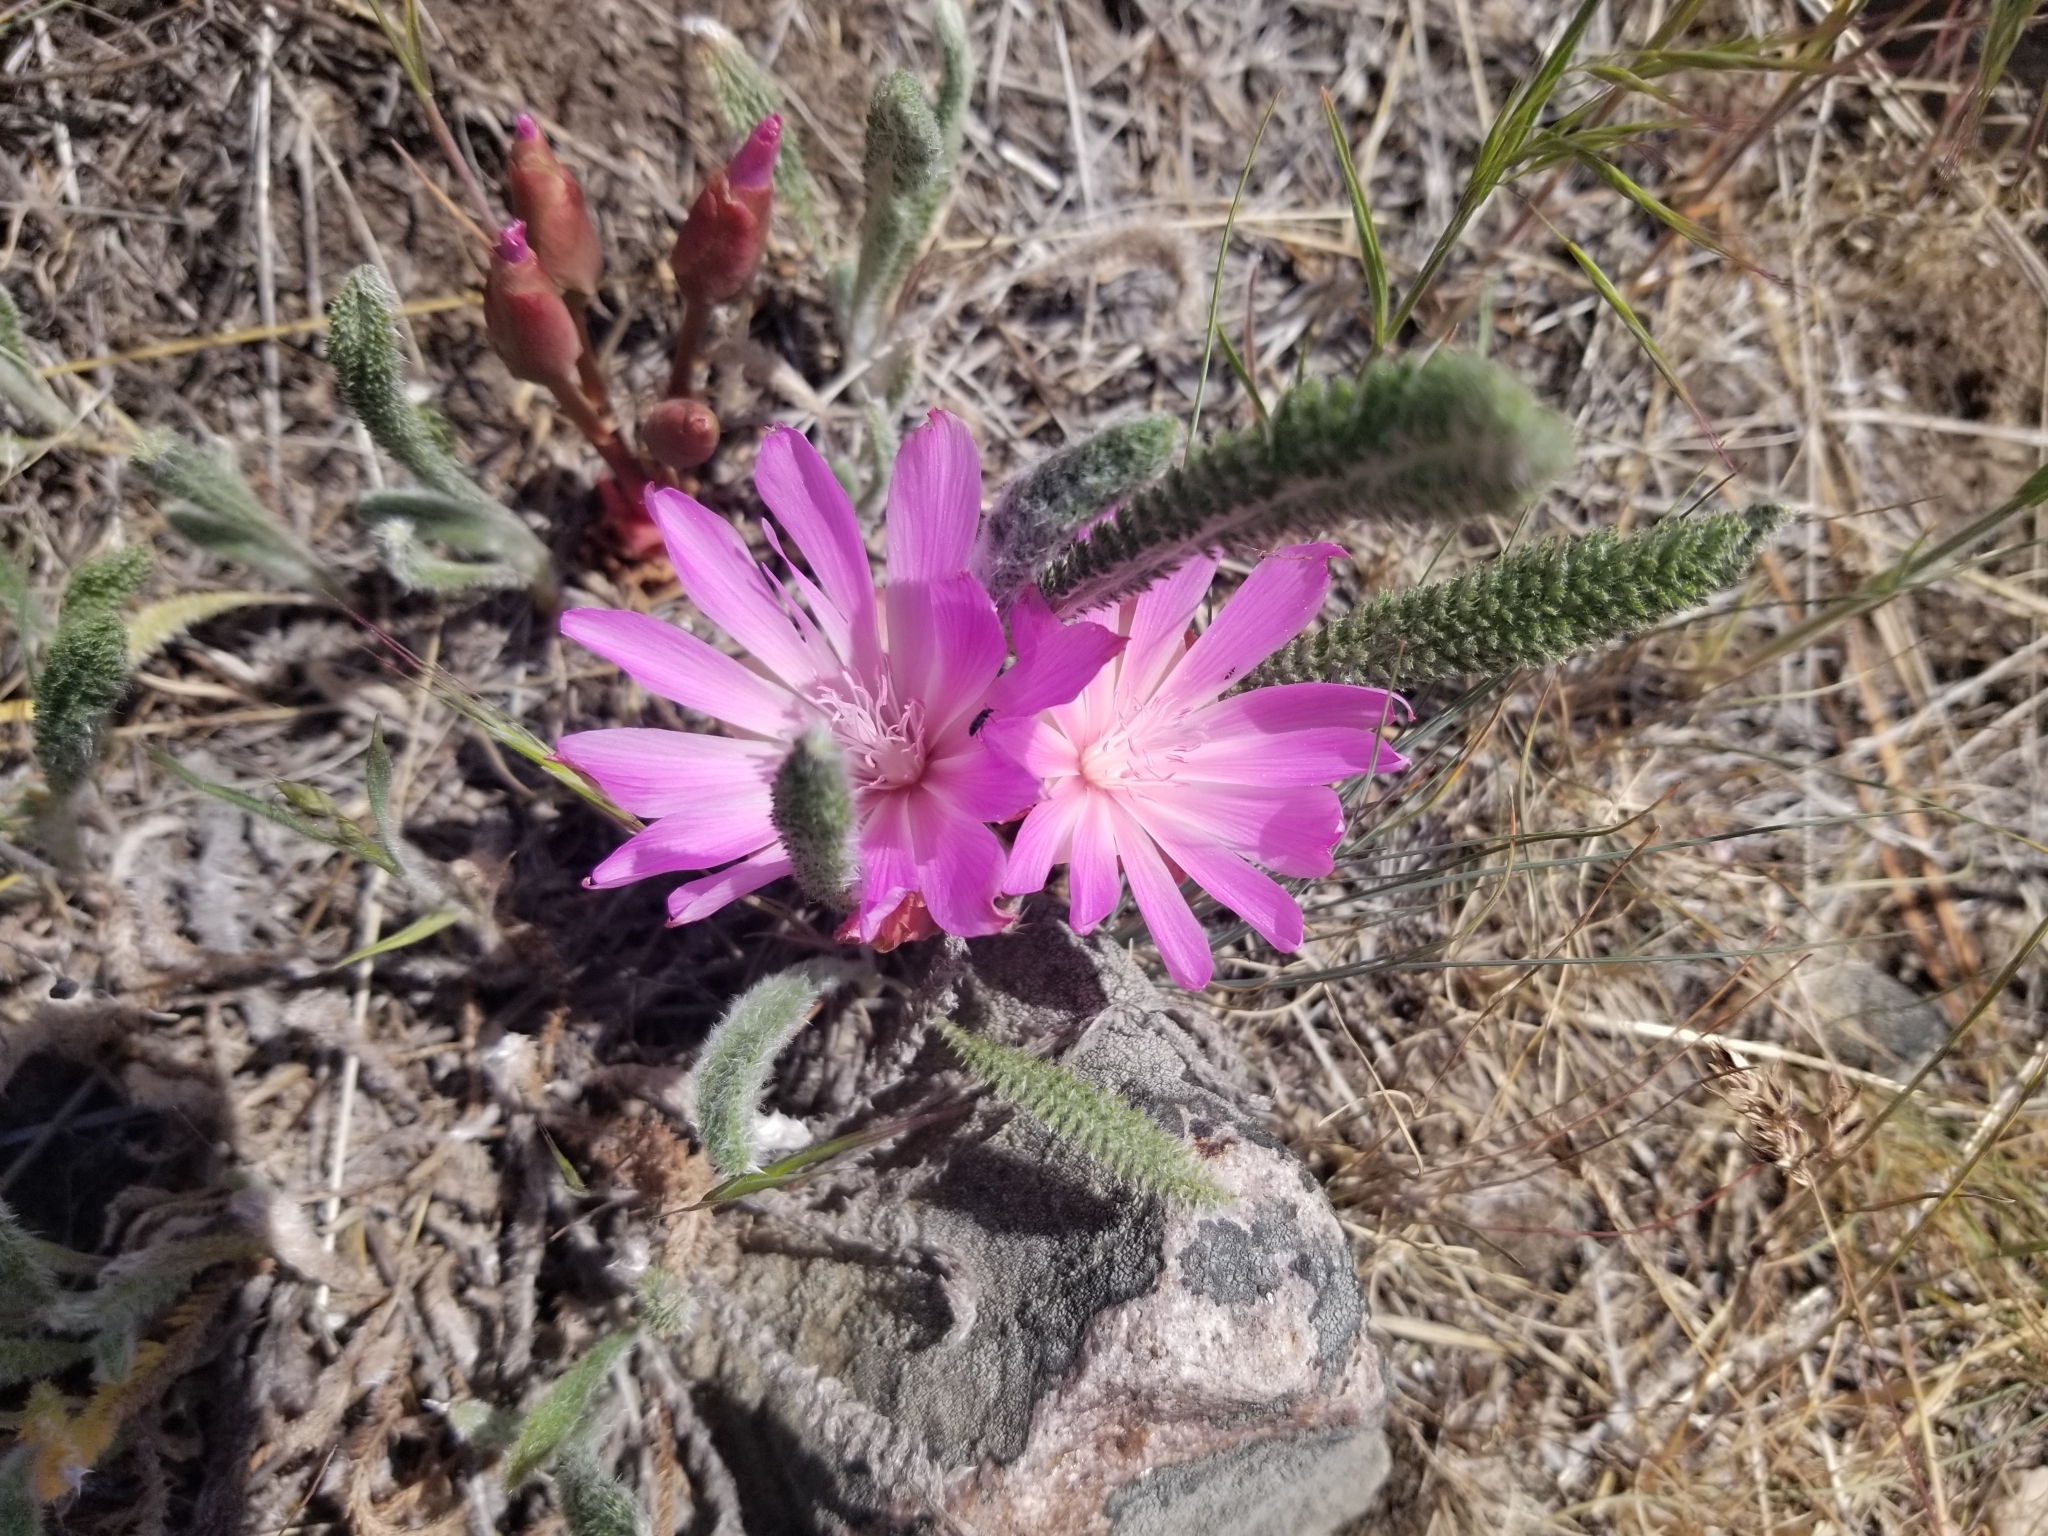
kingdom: Plantae
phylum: Tracheophyta
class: Magnoliopsida
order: Caryophyllales
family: Montiaceae
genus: Lewisia
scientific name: Lewisia rediviva
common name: Bitter-root
